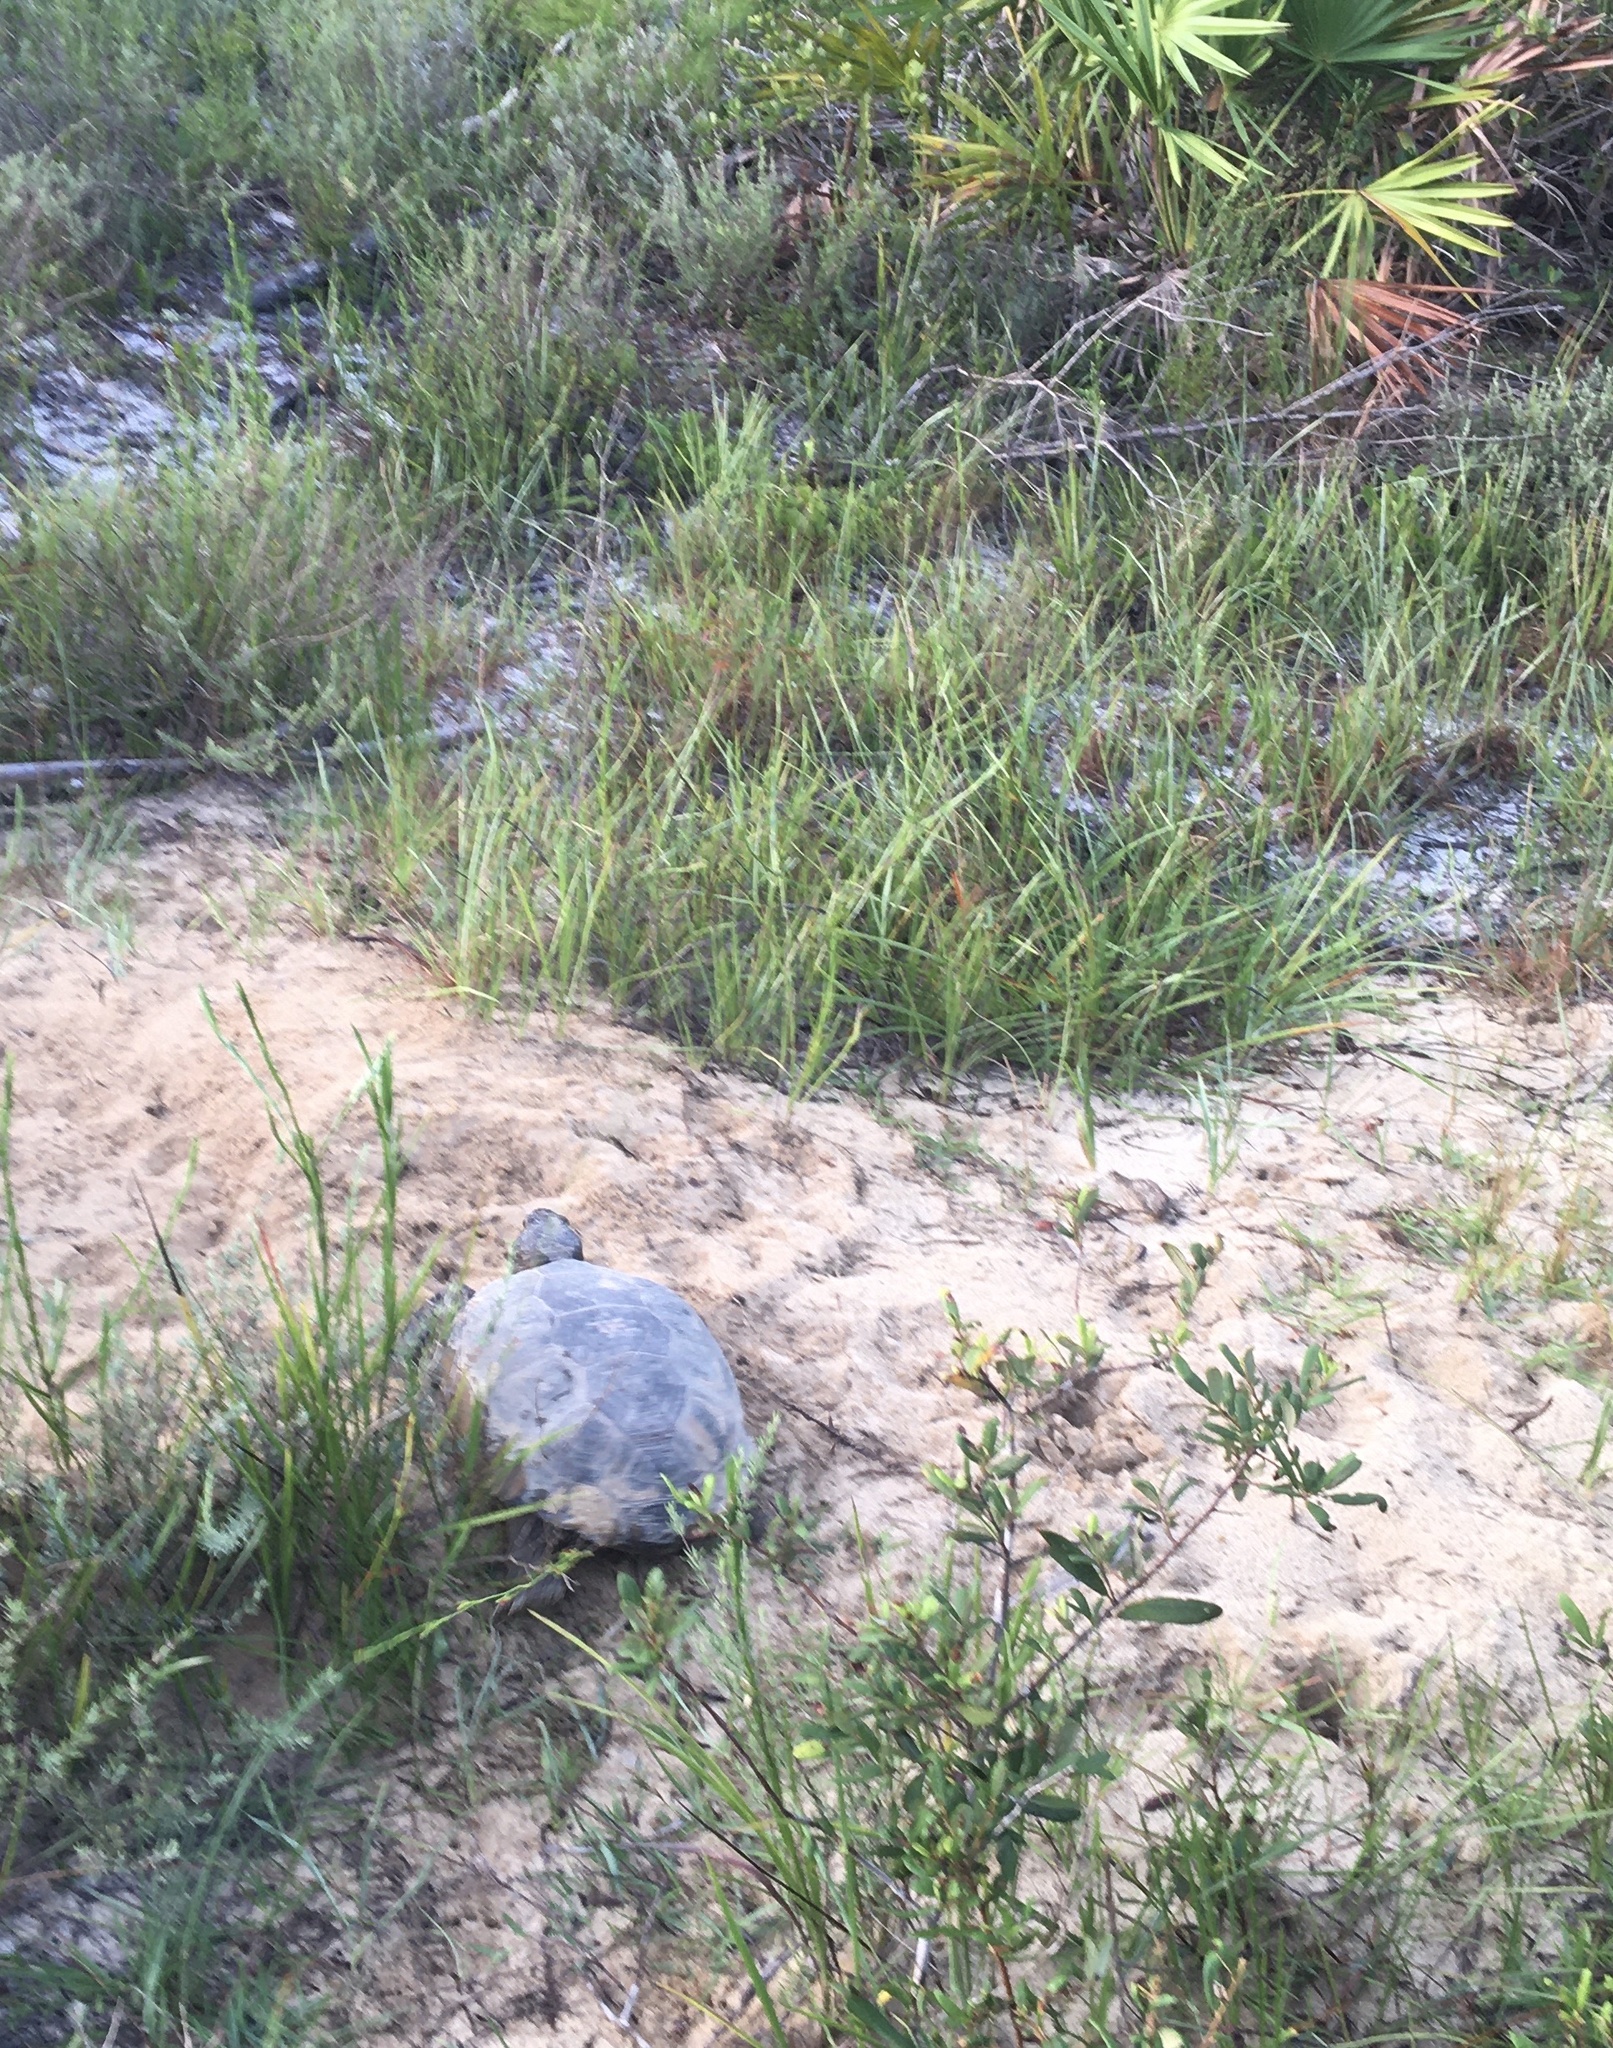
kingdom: Animalia
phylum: Chordata
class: Testudines
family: Testudinidae
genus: Gopherus
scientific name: Gopherus polyphemus
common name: Florida gopher tortoise
